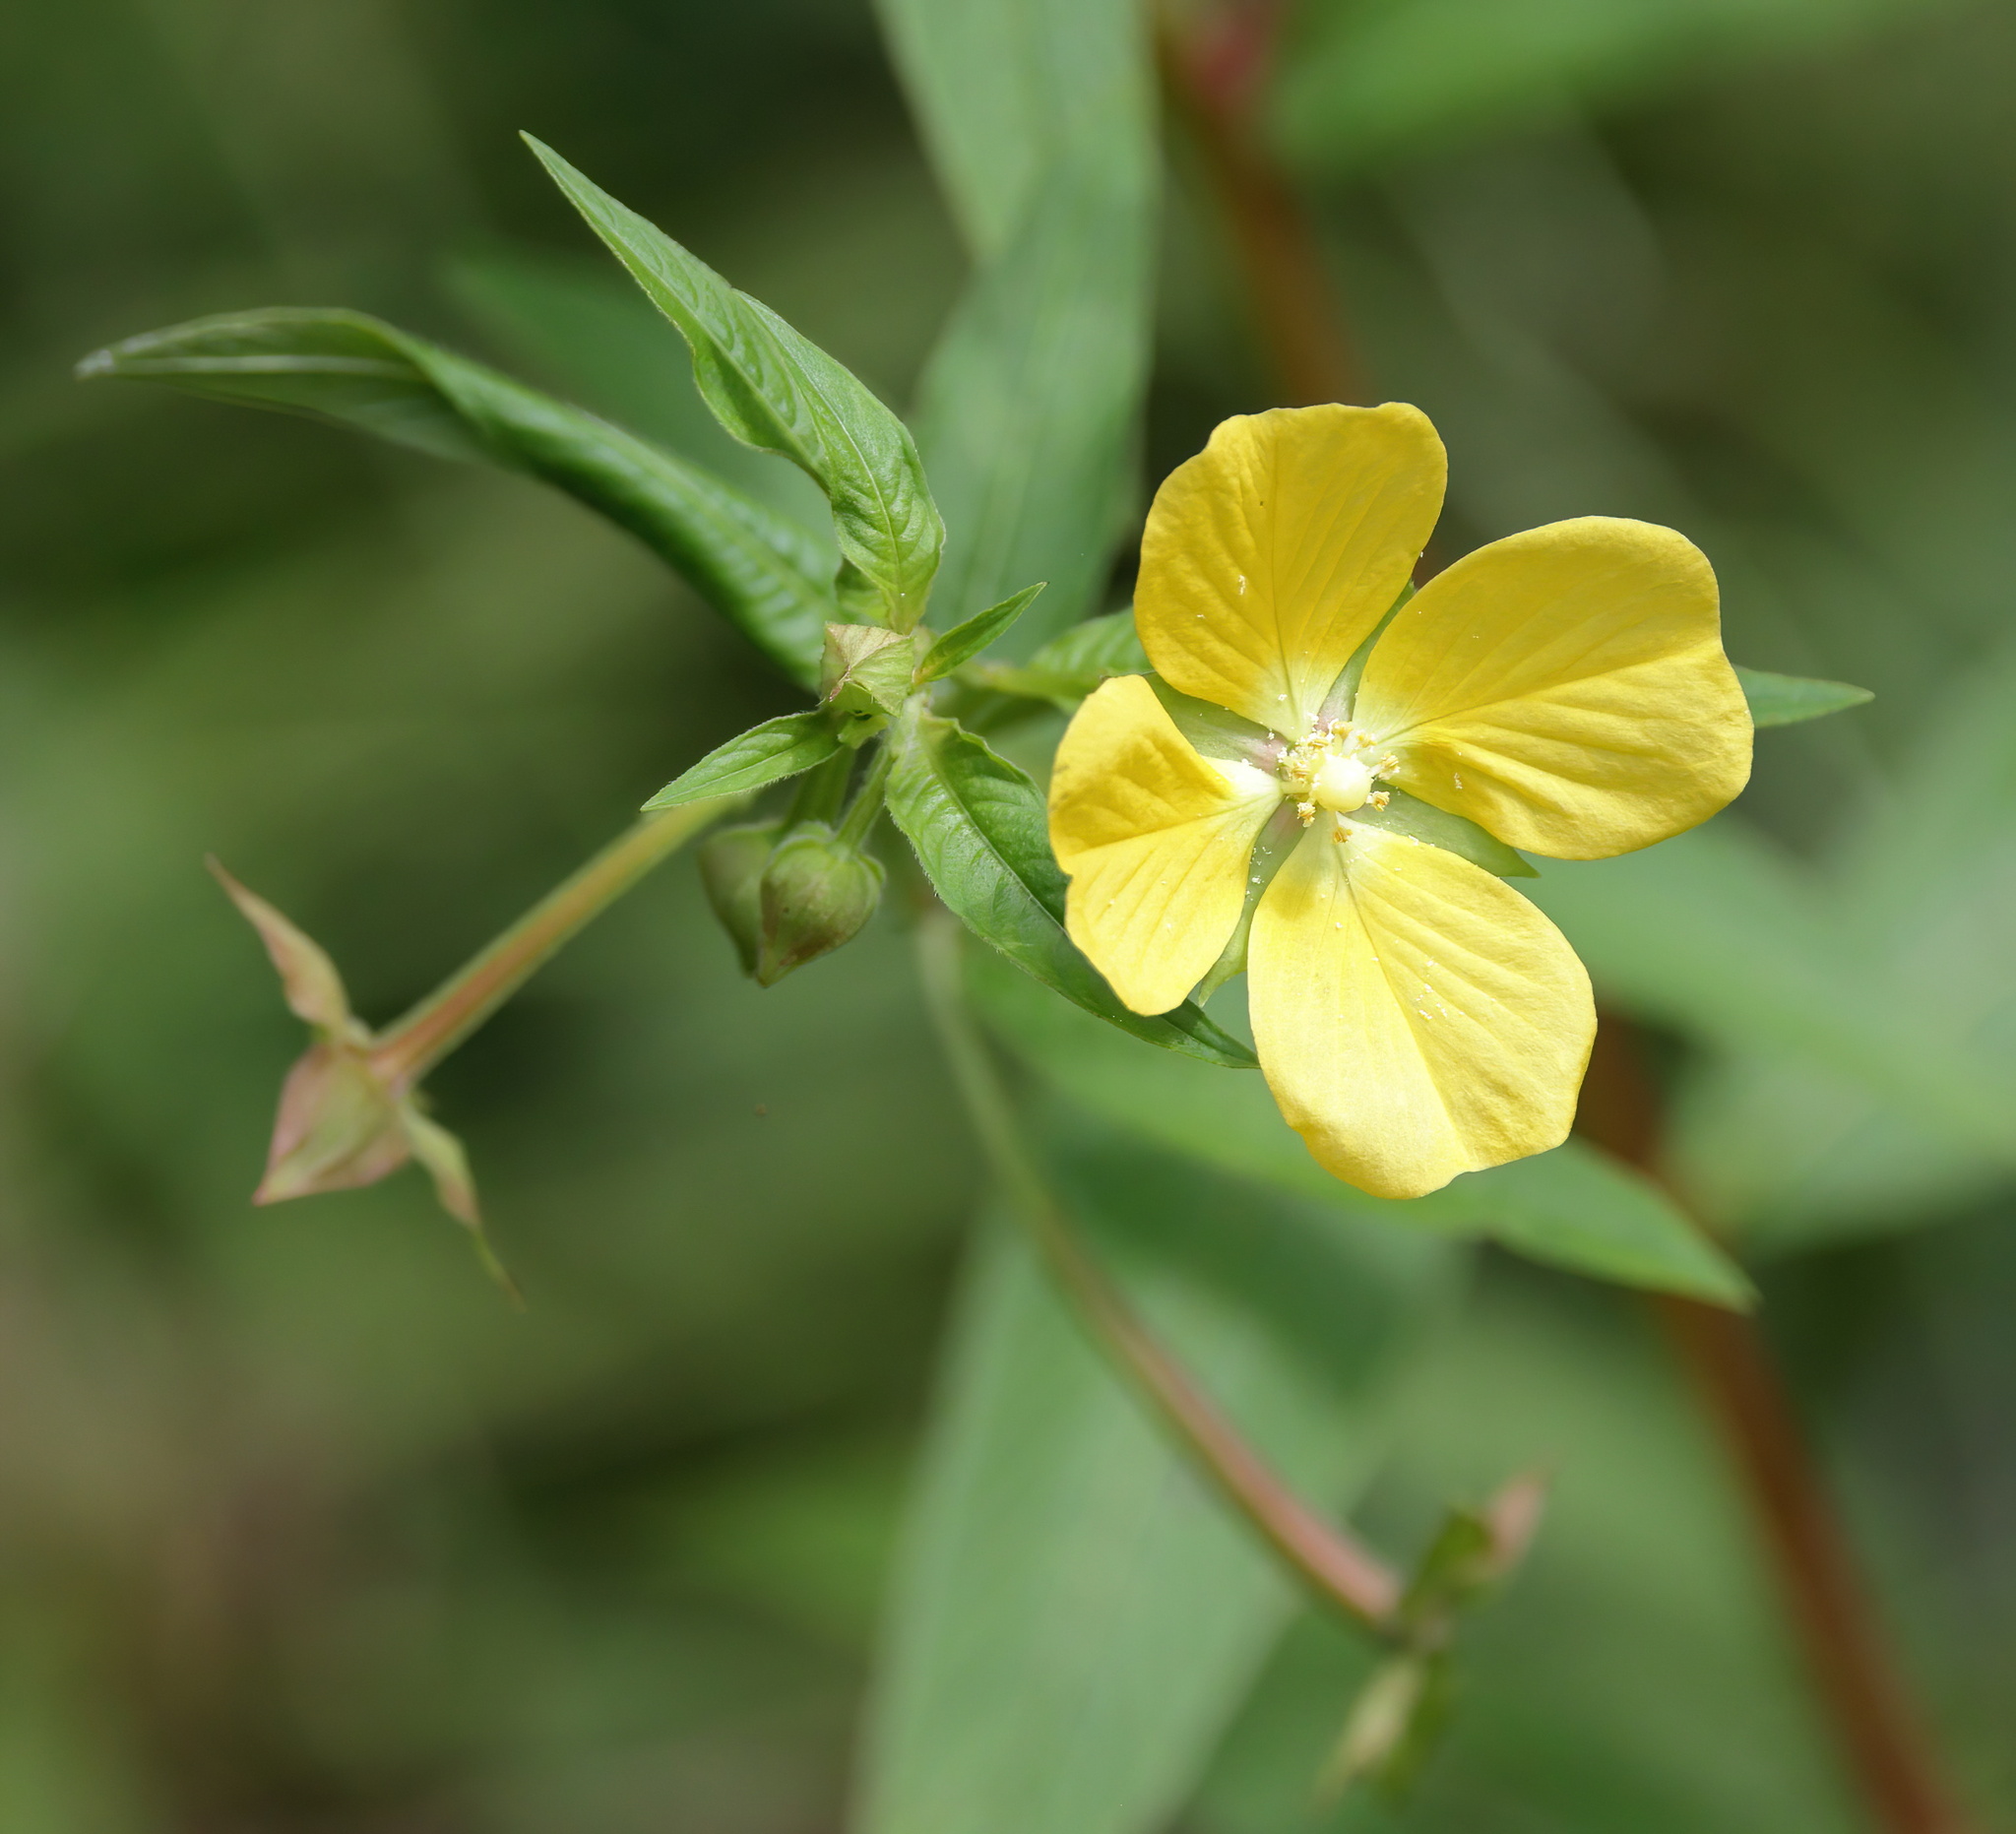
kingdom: Plantae
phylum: Tracheophyta
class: Magnoliopsida
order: Myrtales
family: Onagraceae
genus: Ludwigia
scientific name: Ludwigia octovalvis
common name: Water-primrose
